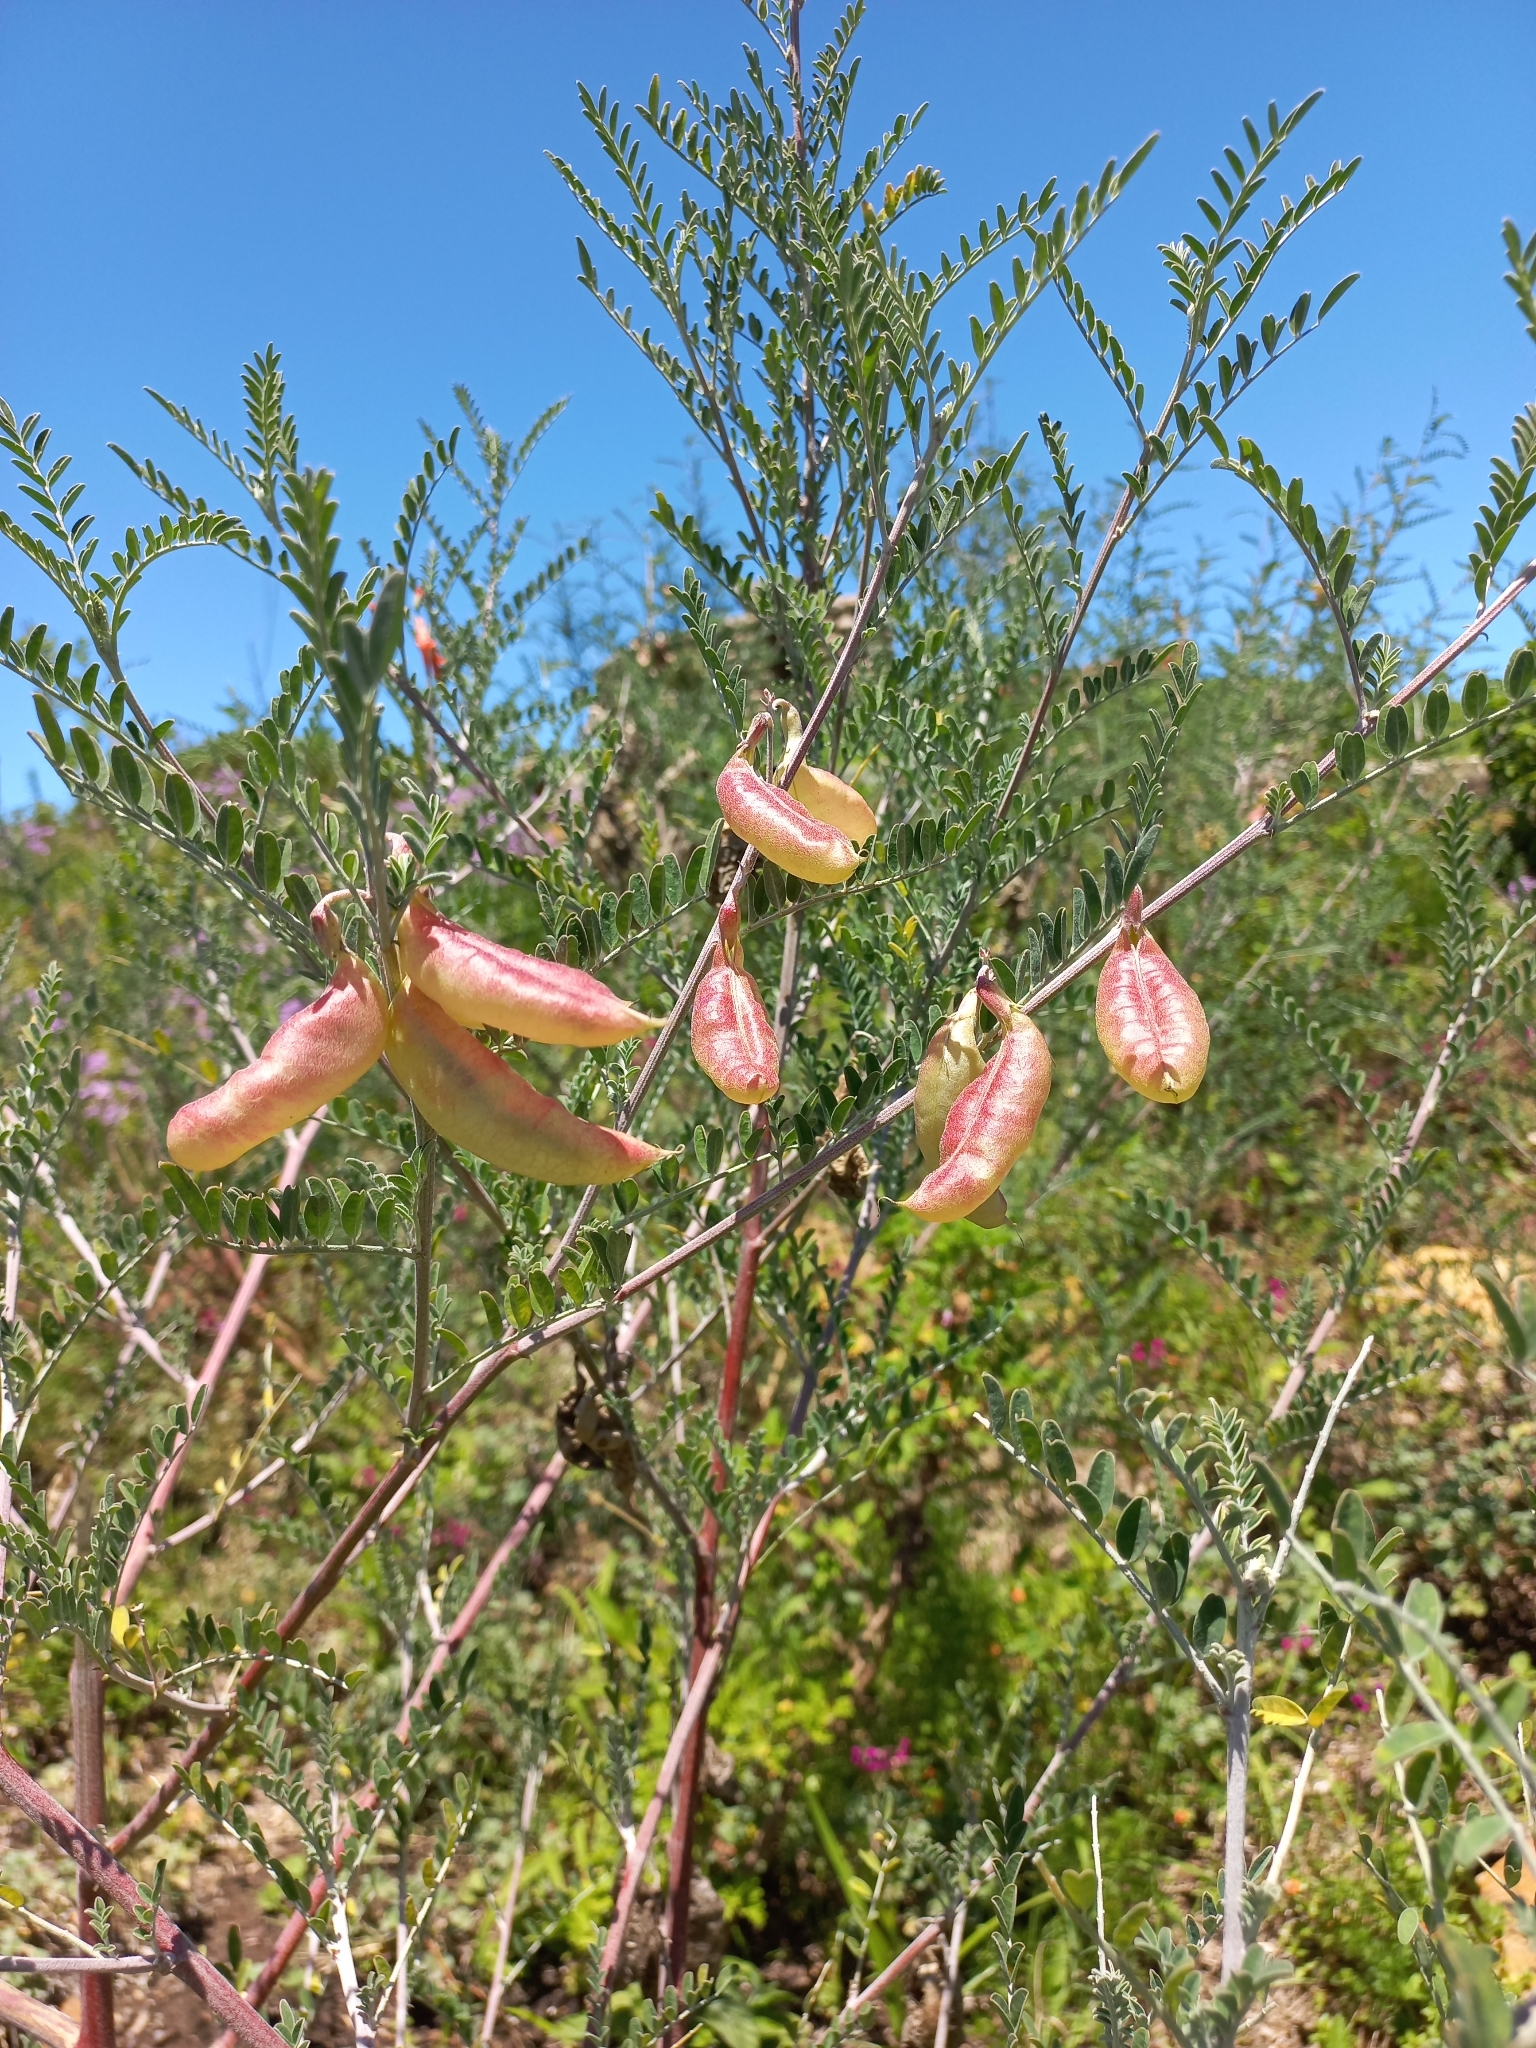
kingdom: Plantae
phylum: Tracheophyta
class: Magnoliopsida
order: Fabales
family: Fabaceae
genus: Lessertia
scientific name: Lessertia frutescens
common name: Balloon-pea
